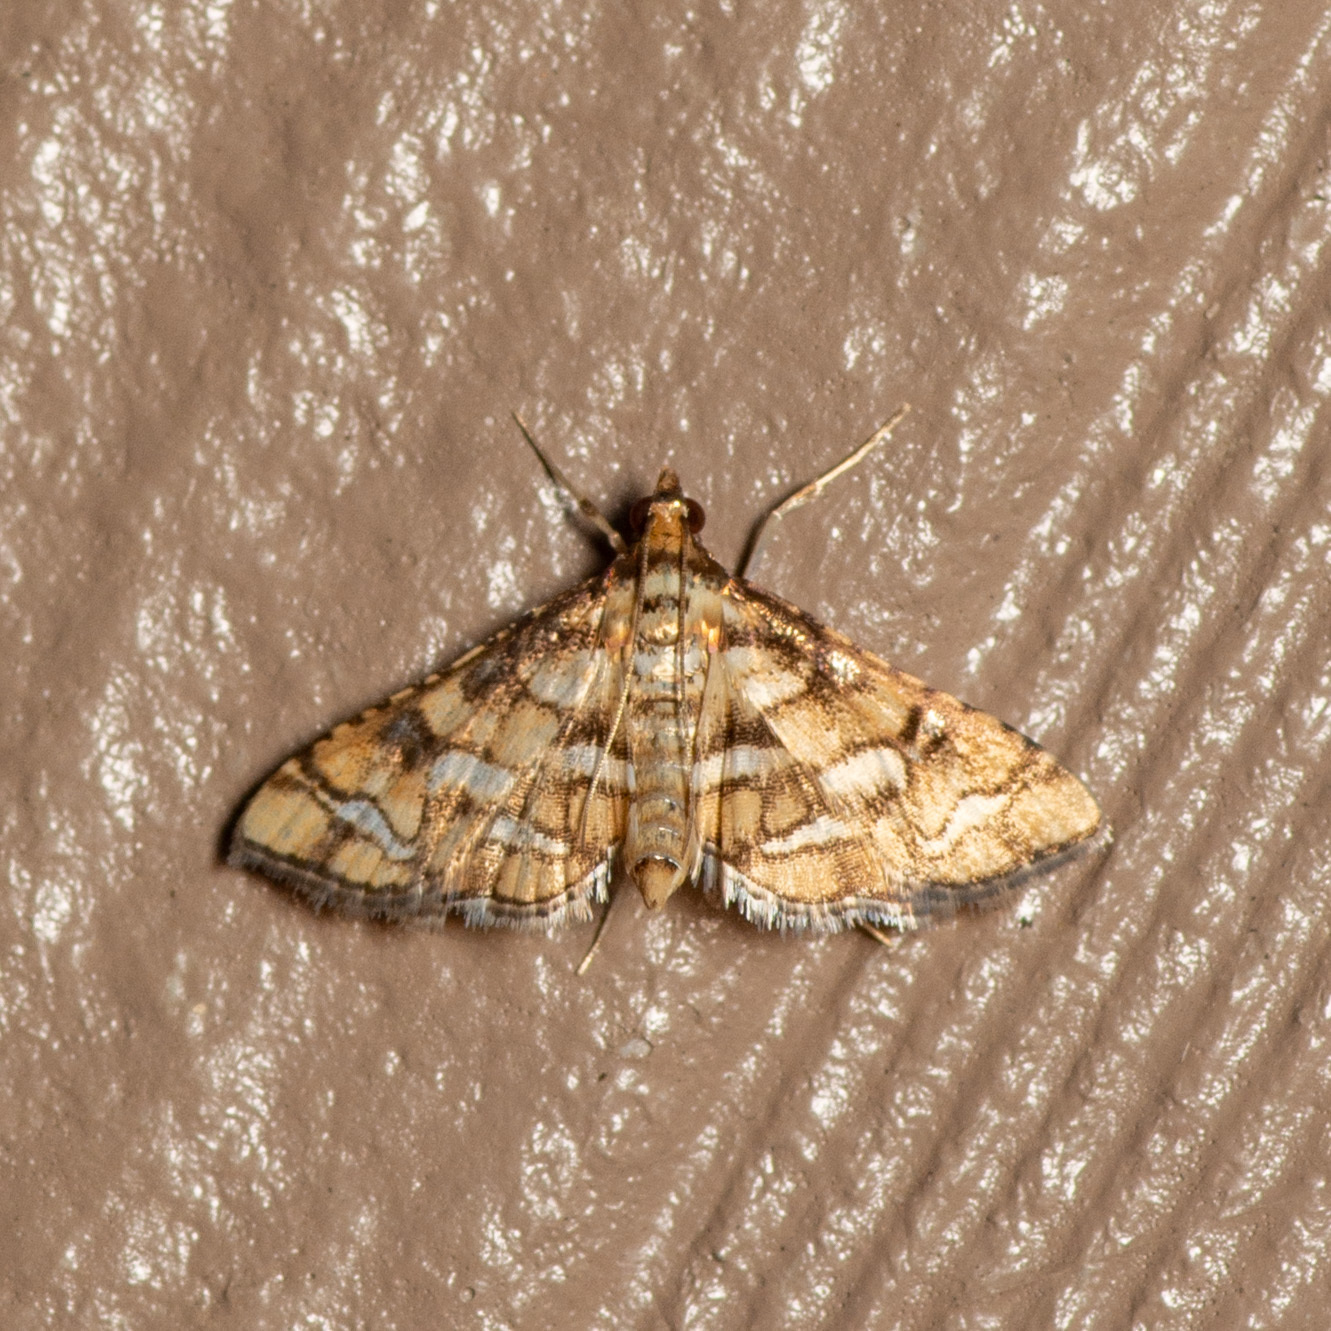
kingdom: Animalia
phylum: Arthropoda
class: Insecta
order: Lepidoptera
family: Crambidae
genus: Hileithia
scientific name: Hileithia magualis
